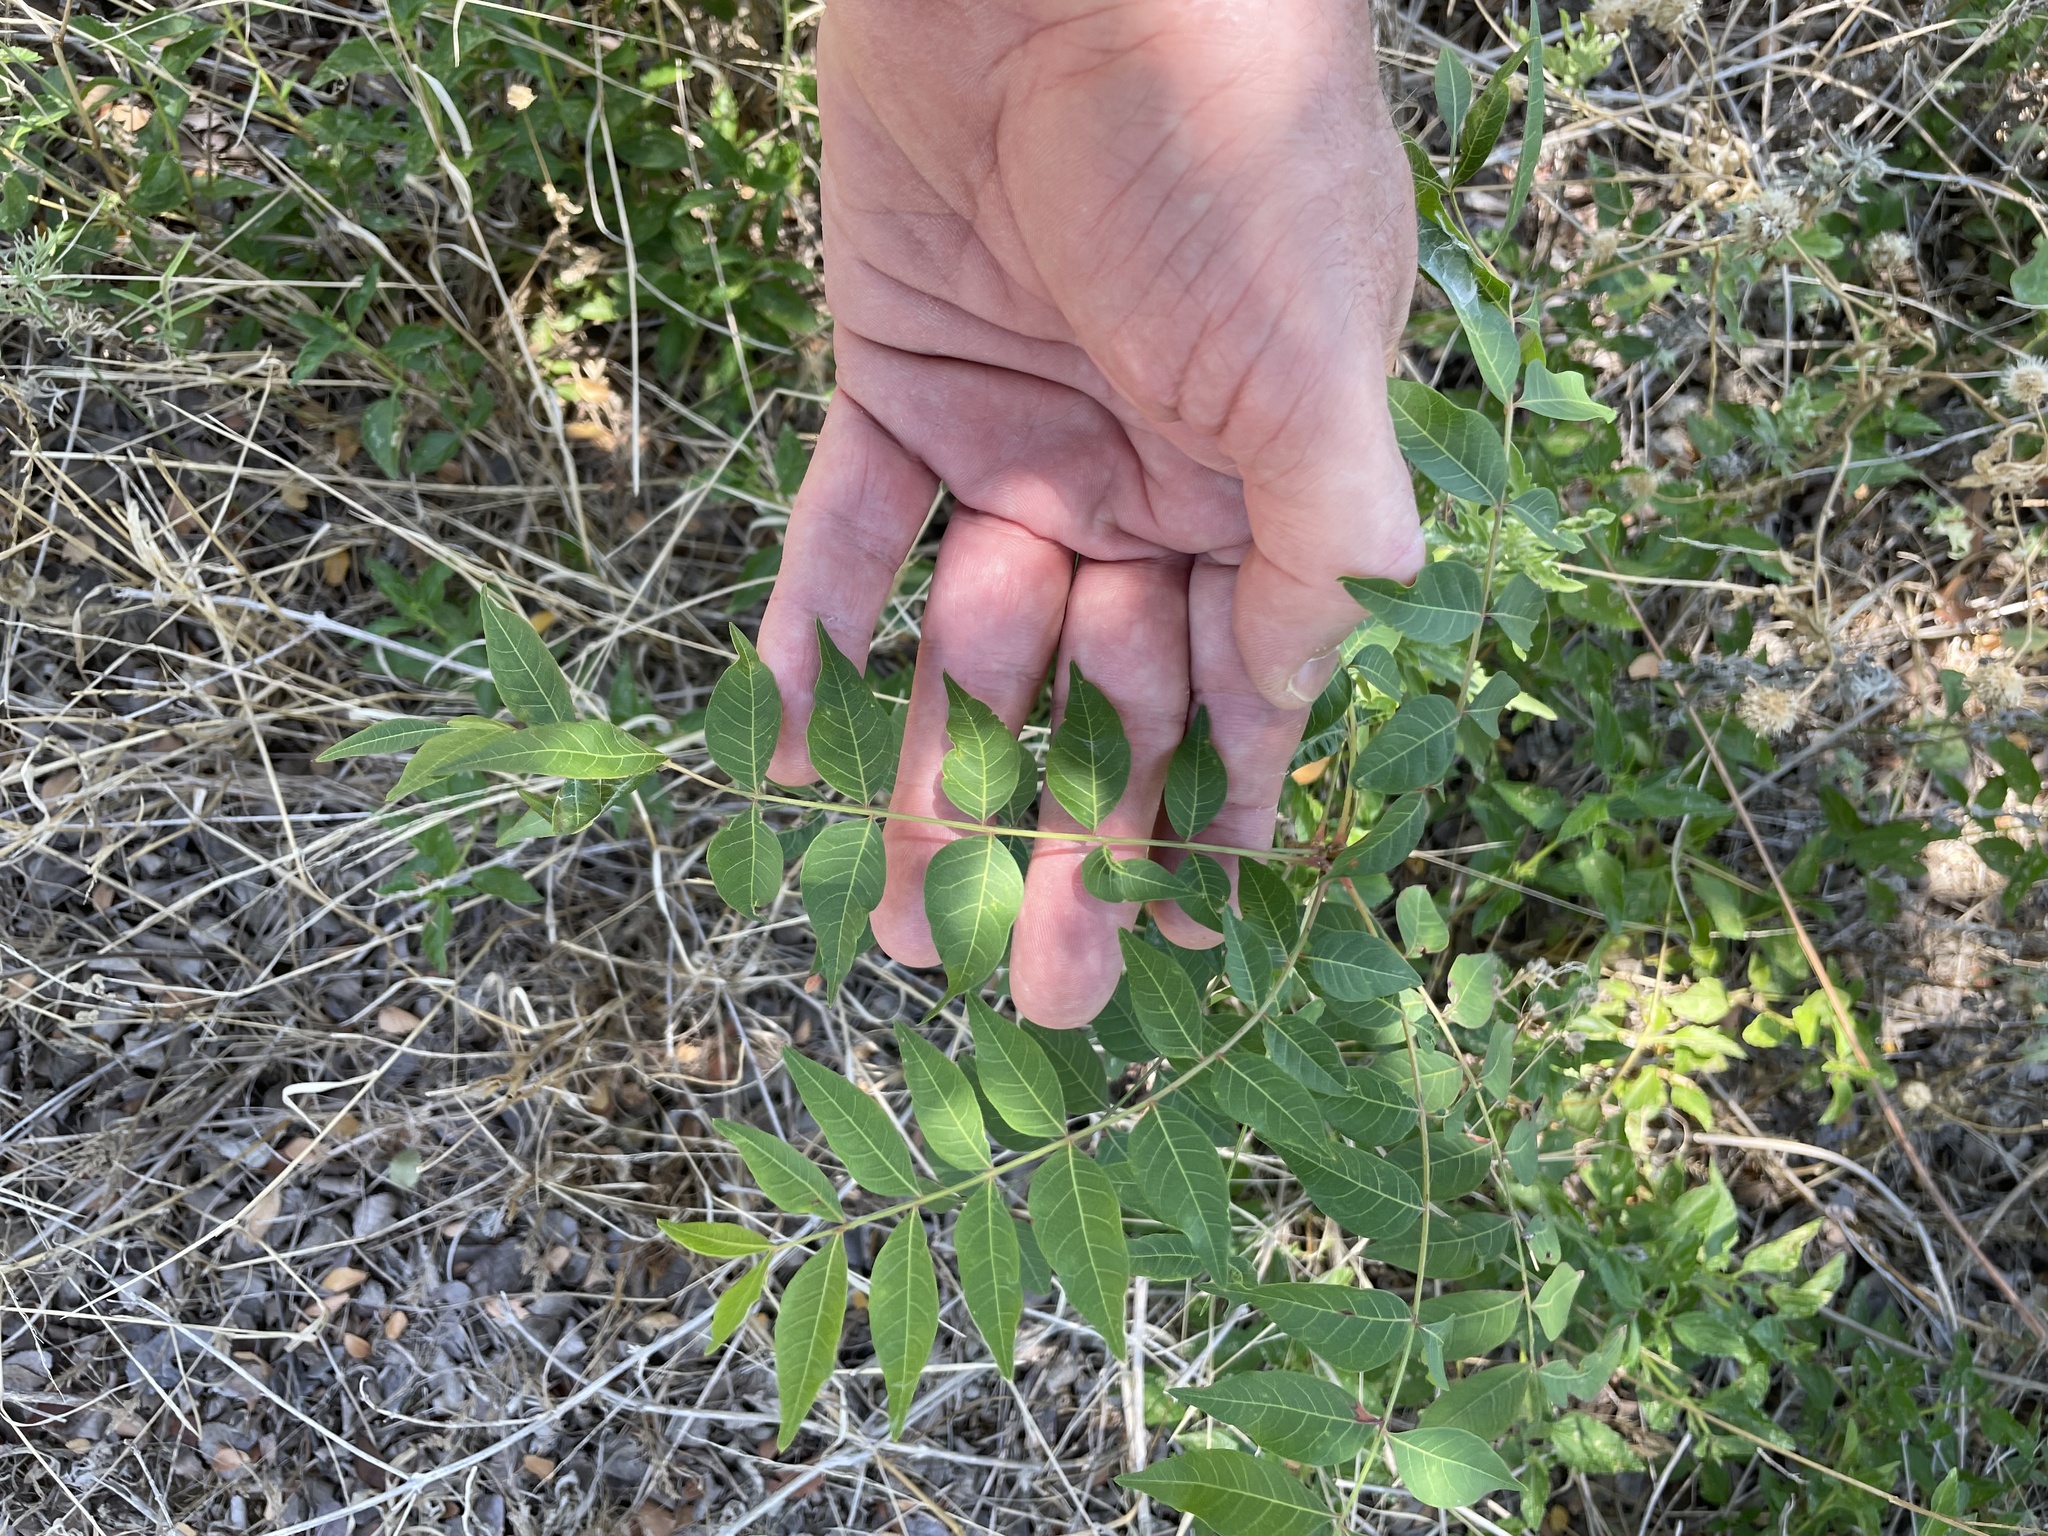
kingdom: Plantae
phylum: Tracheophyta
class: Magnoliopsida
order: Sapindales
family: Anacardiaceae
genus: Pistacia
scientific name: Pistacia chinensis
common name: Chinese pistache
